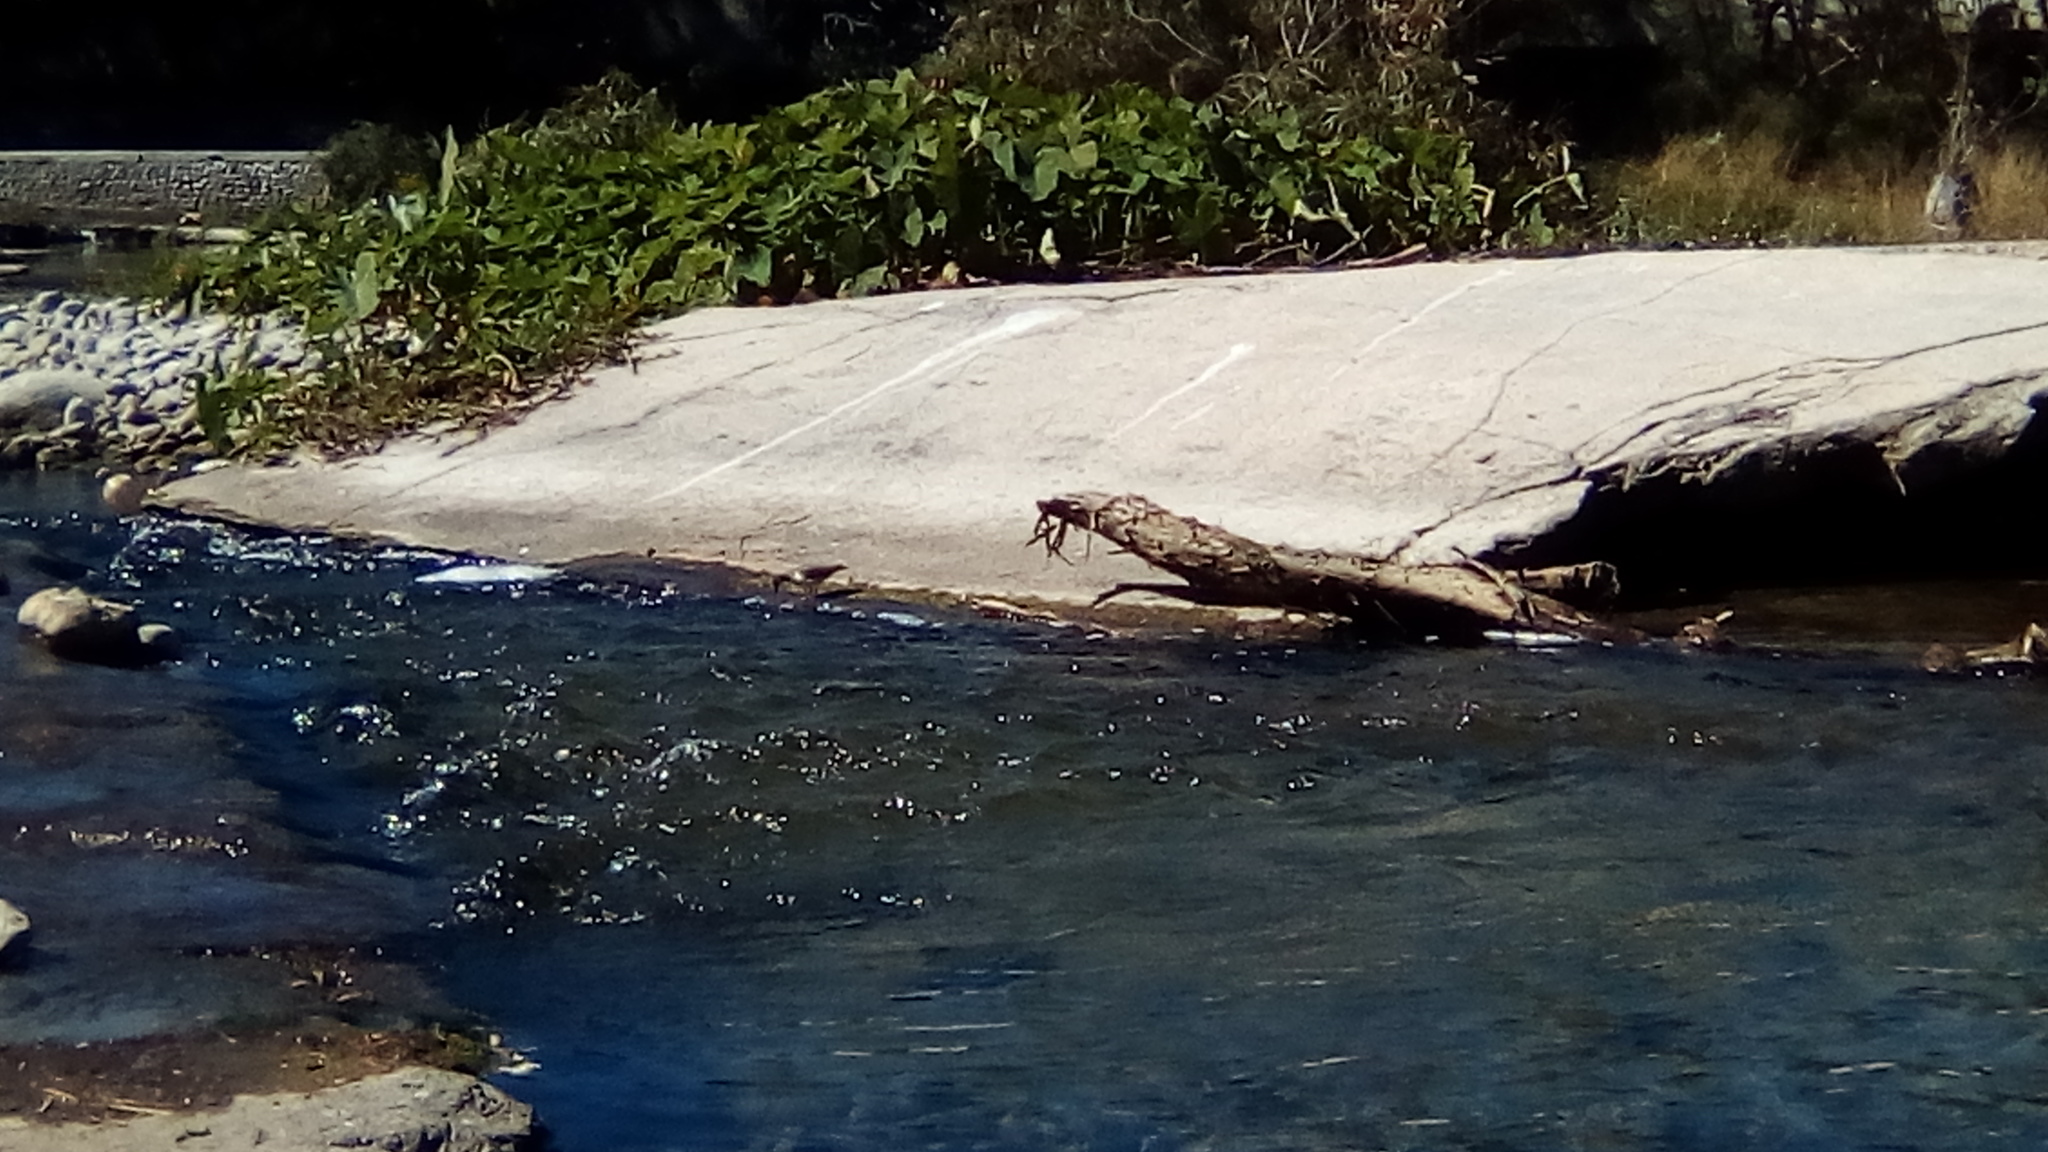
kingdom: Animalia
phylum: Chordata
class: Aves
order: Pelecaniformes
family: Ardeidae
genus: Ardea
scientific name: Ardea alba
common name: Great egret
